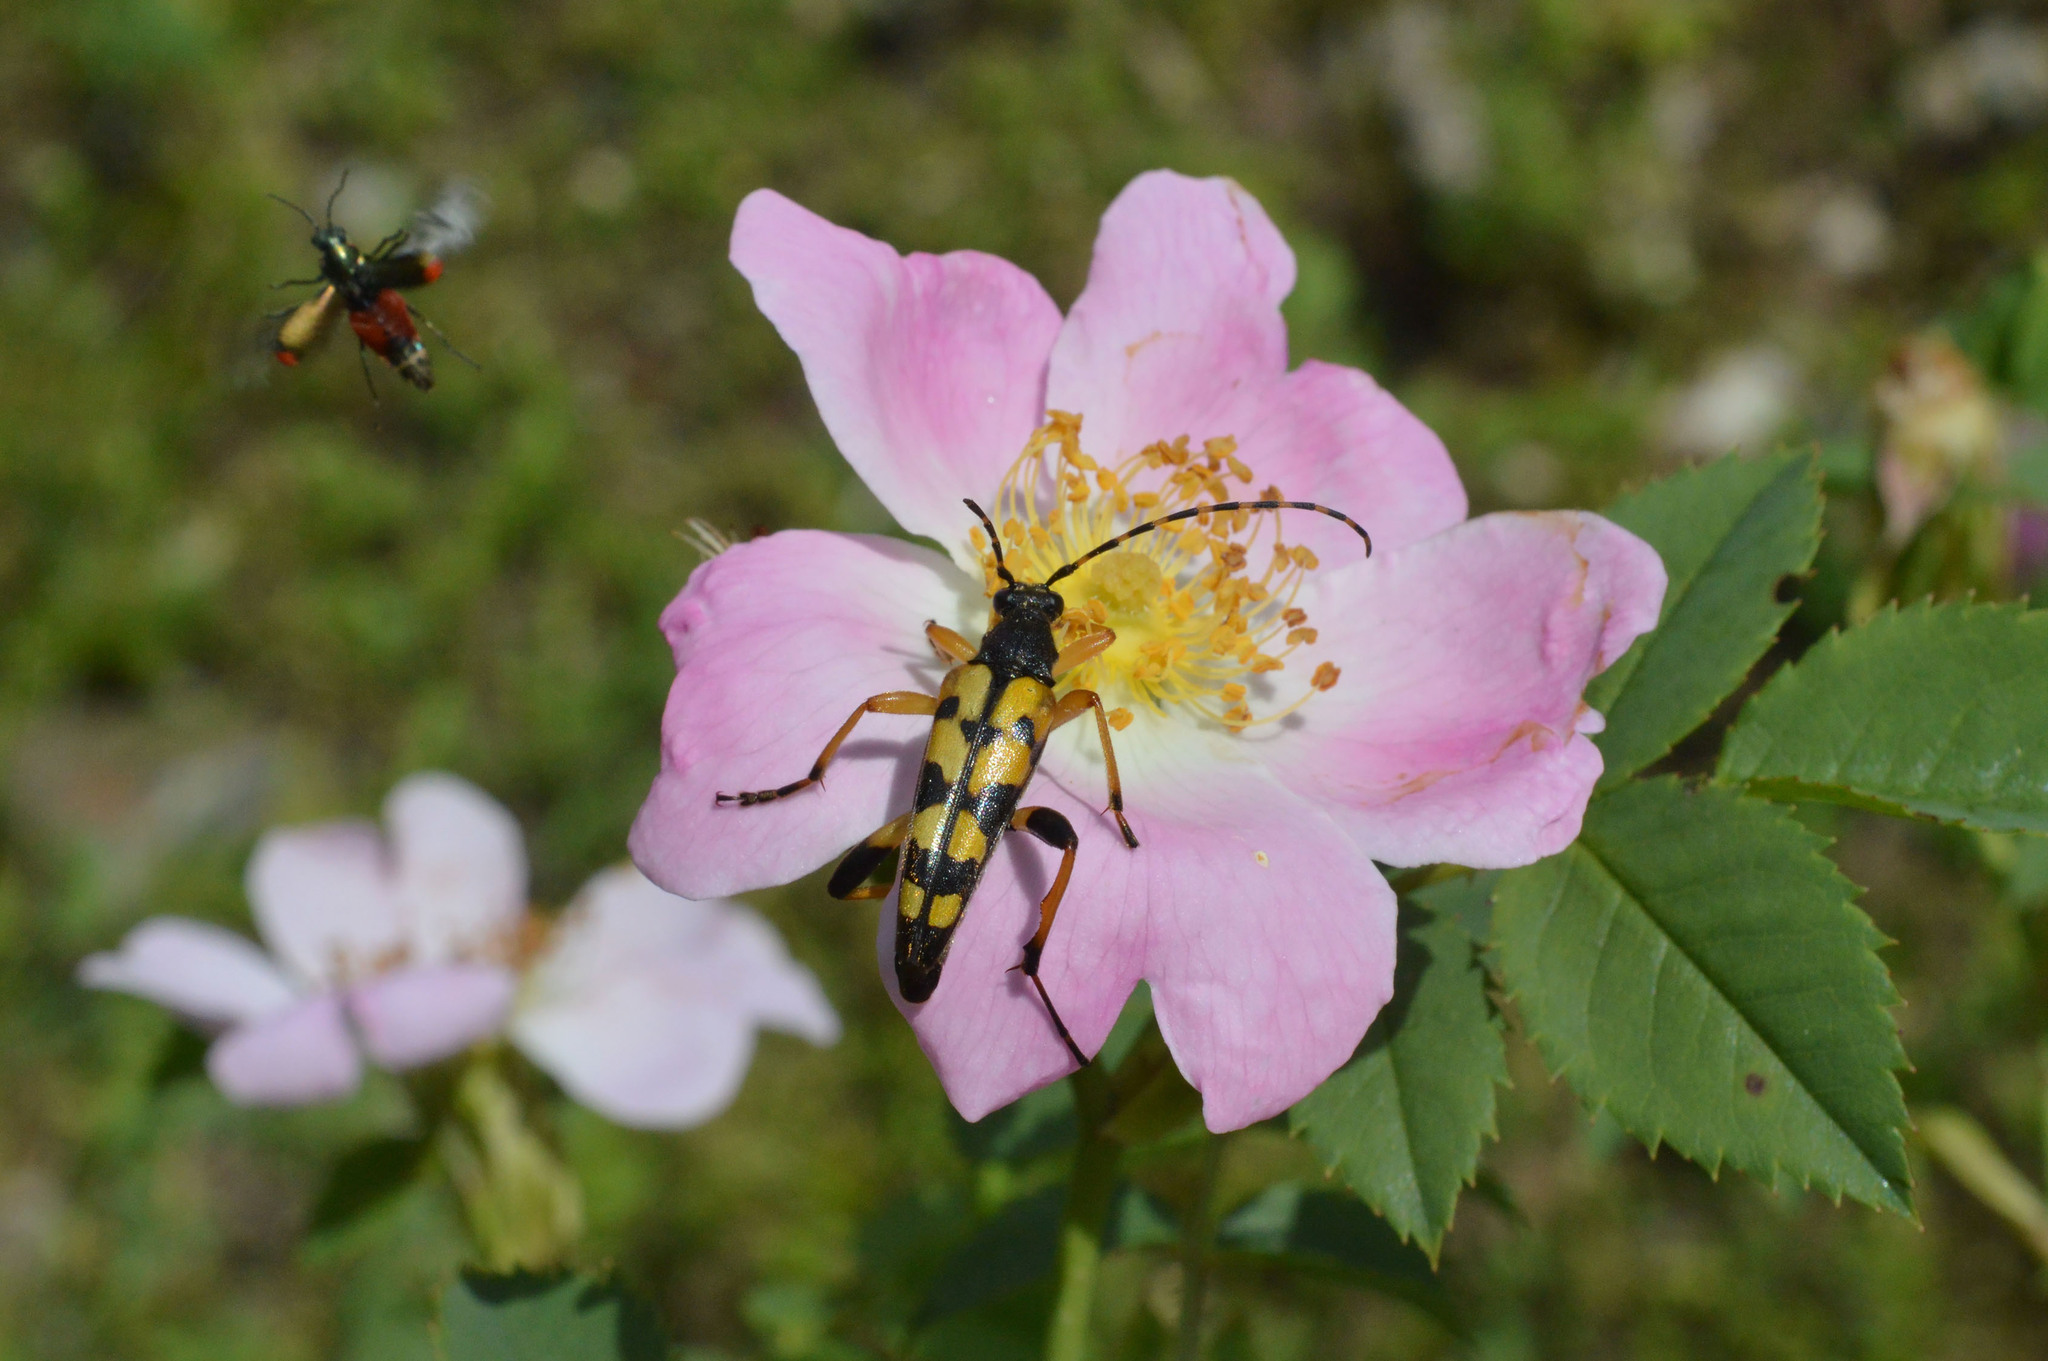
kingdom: Animalia
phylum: Arthropoda
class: Insecta
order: Coleoptera
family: Cerambycidae
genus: Rutpela
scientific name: Rutpela maculata
